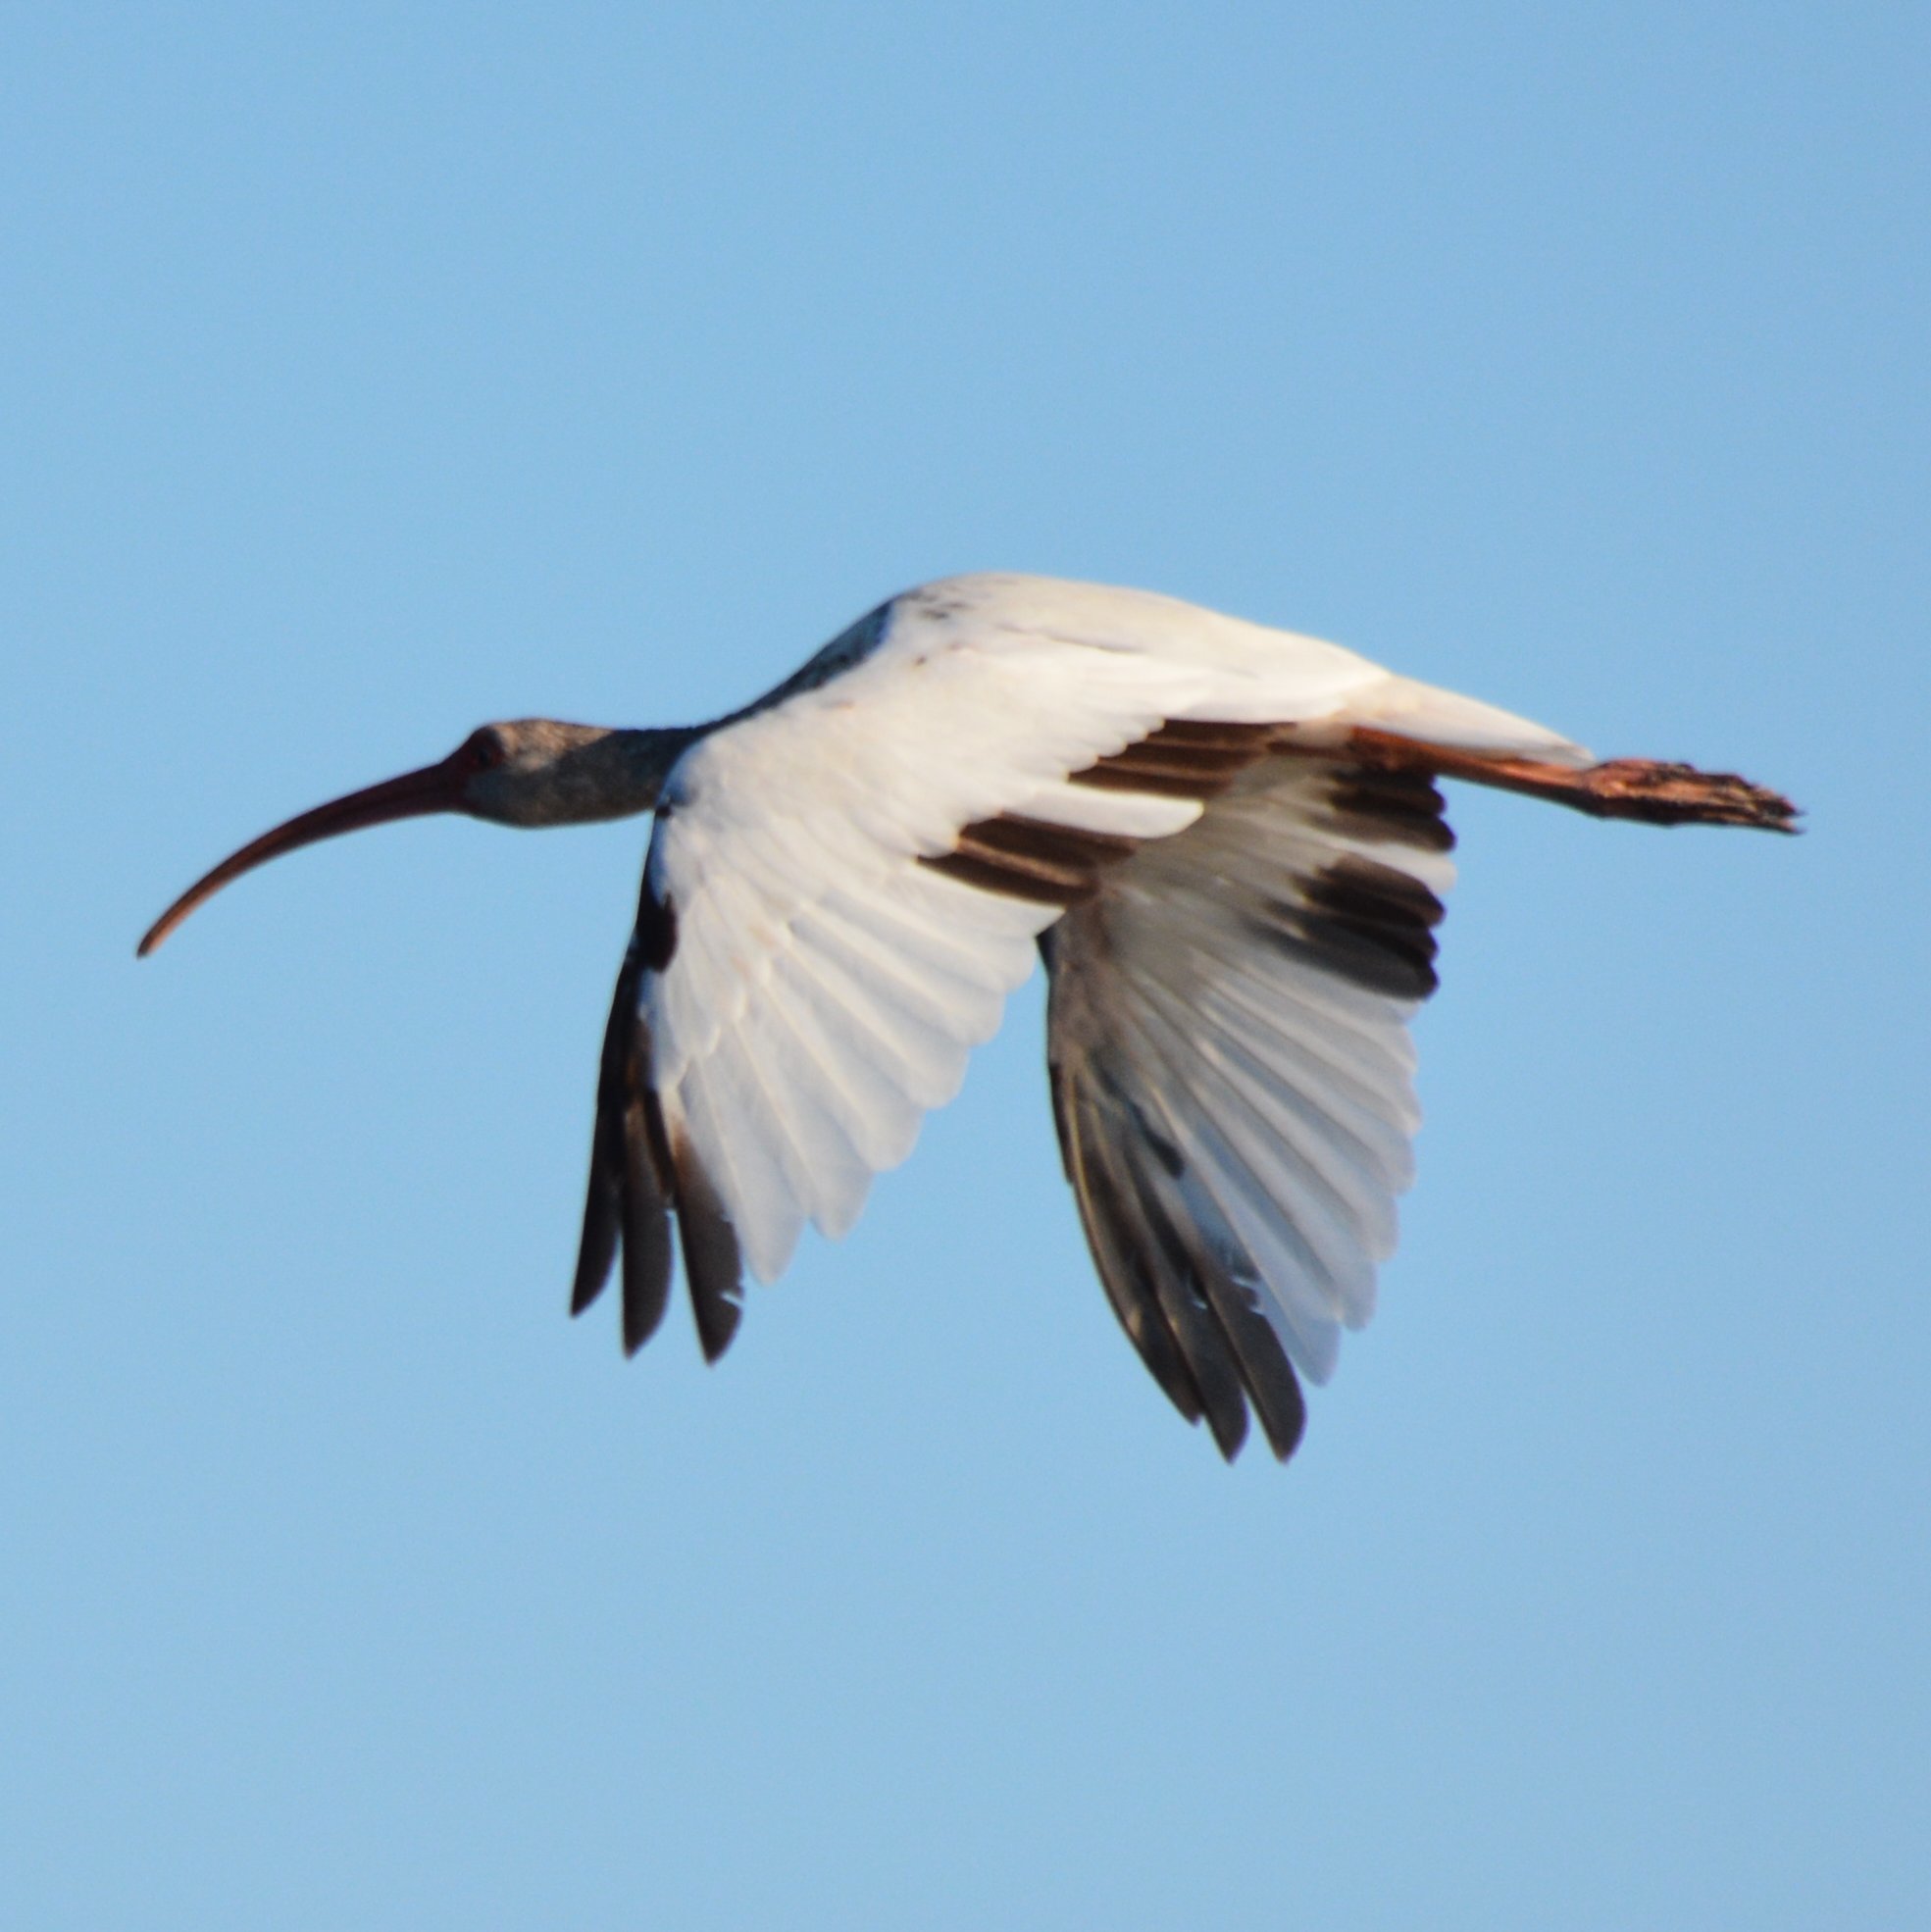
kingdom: Animalia
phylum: Chordata
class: Aves
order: Pelecaniformes
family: Threskiornithidae
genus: Eudocimus
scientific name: Eudocimus albus
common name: White ibis
